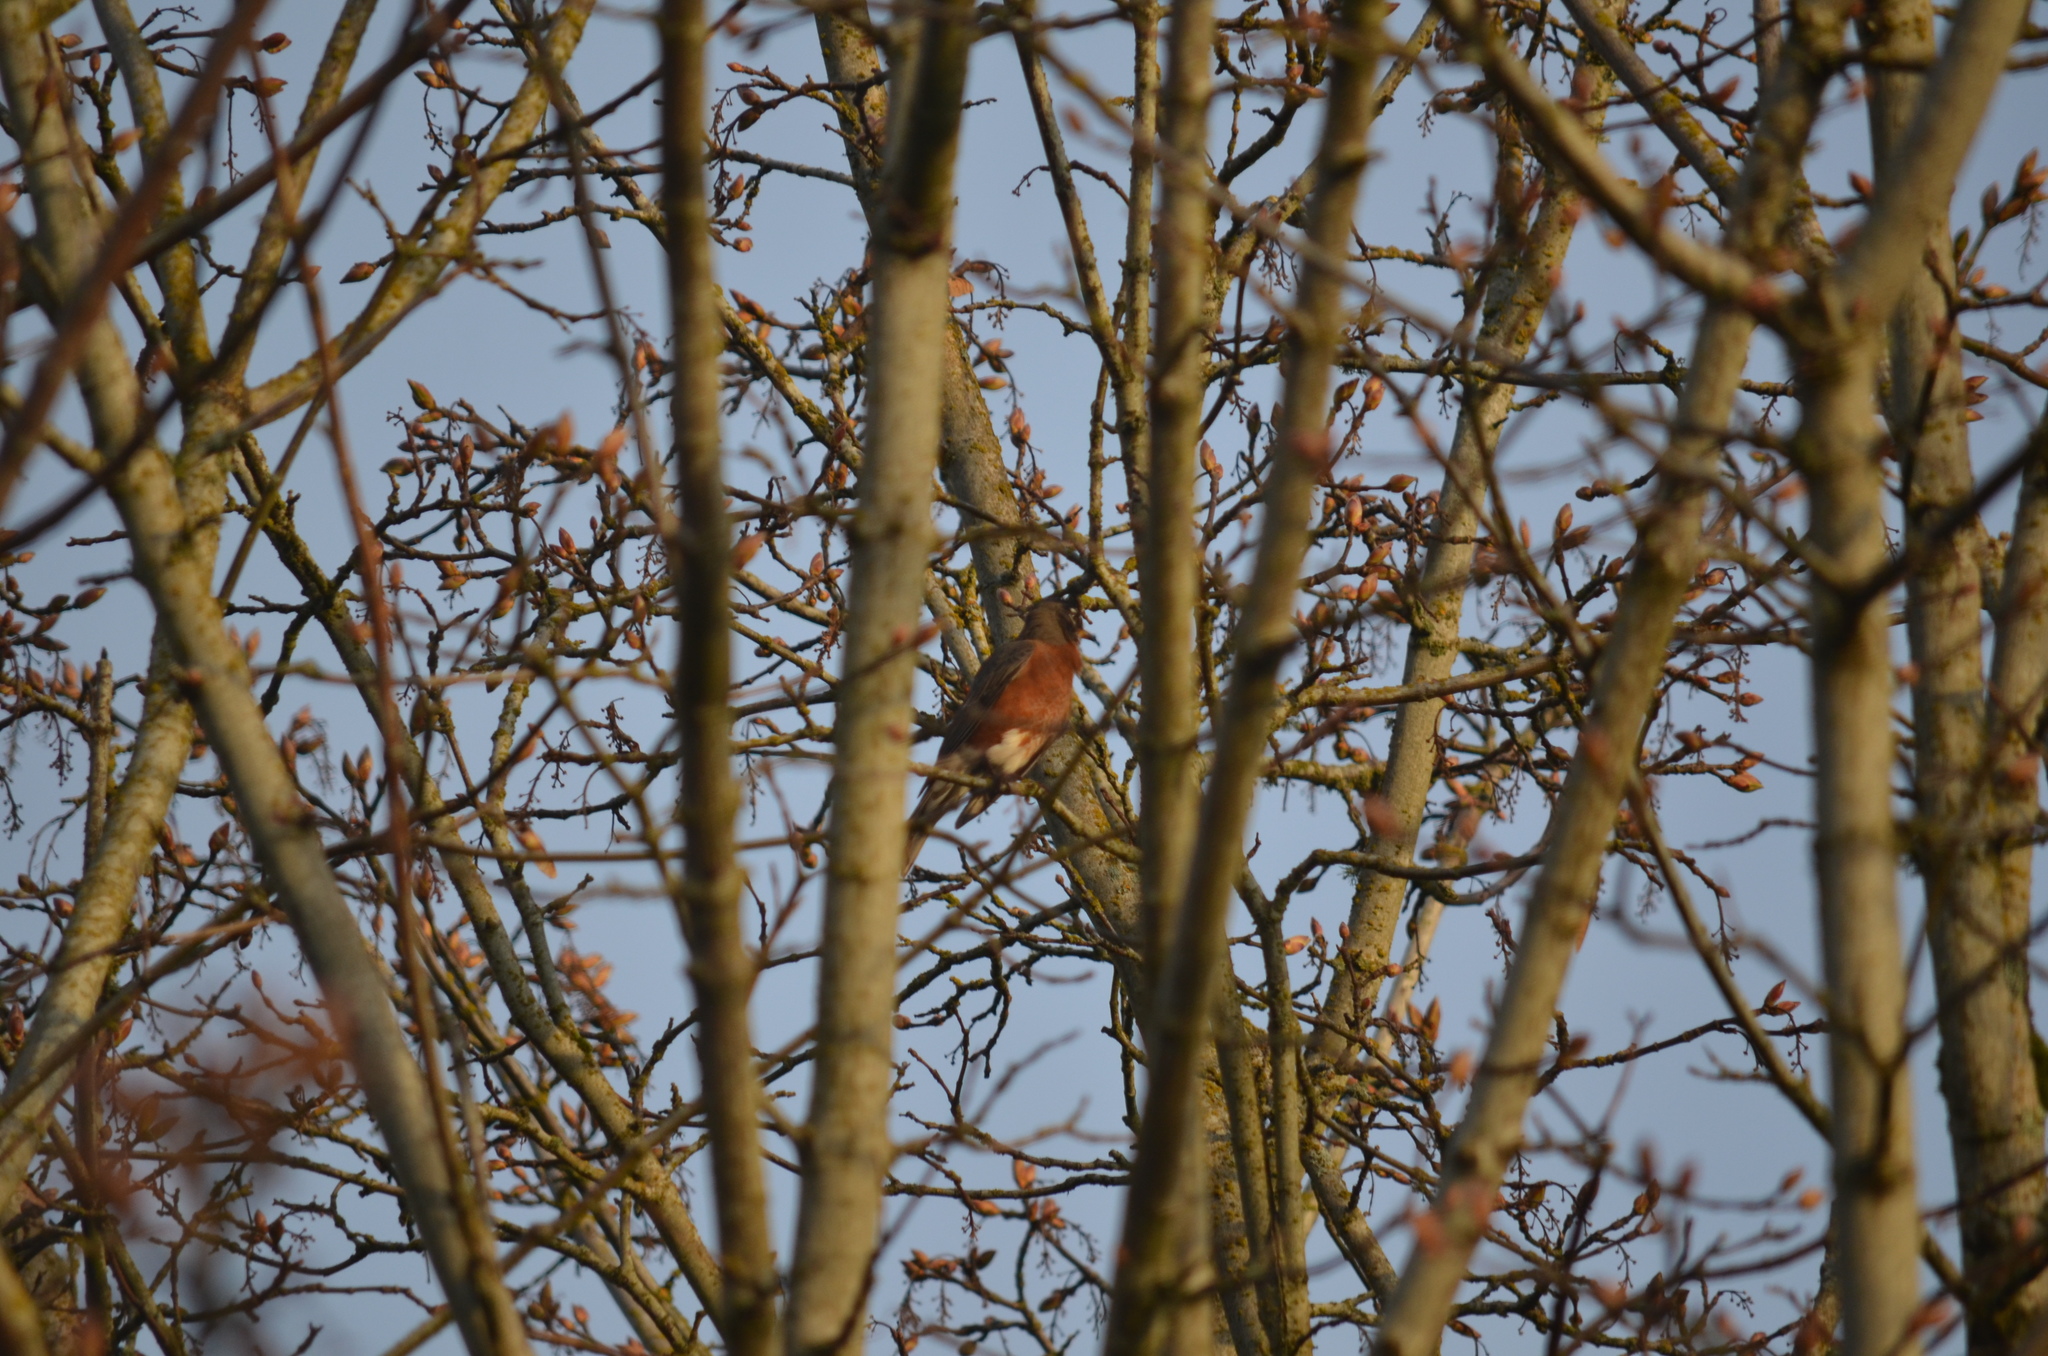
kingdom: Animalia
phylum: Chordata
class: Aves
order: Passeriformes
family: Turdidae
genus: Turdus
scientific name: Turdus migratorius
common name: American robin
